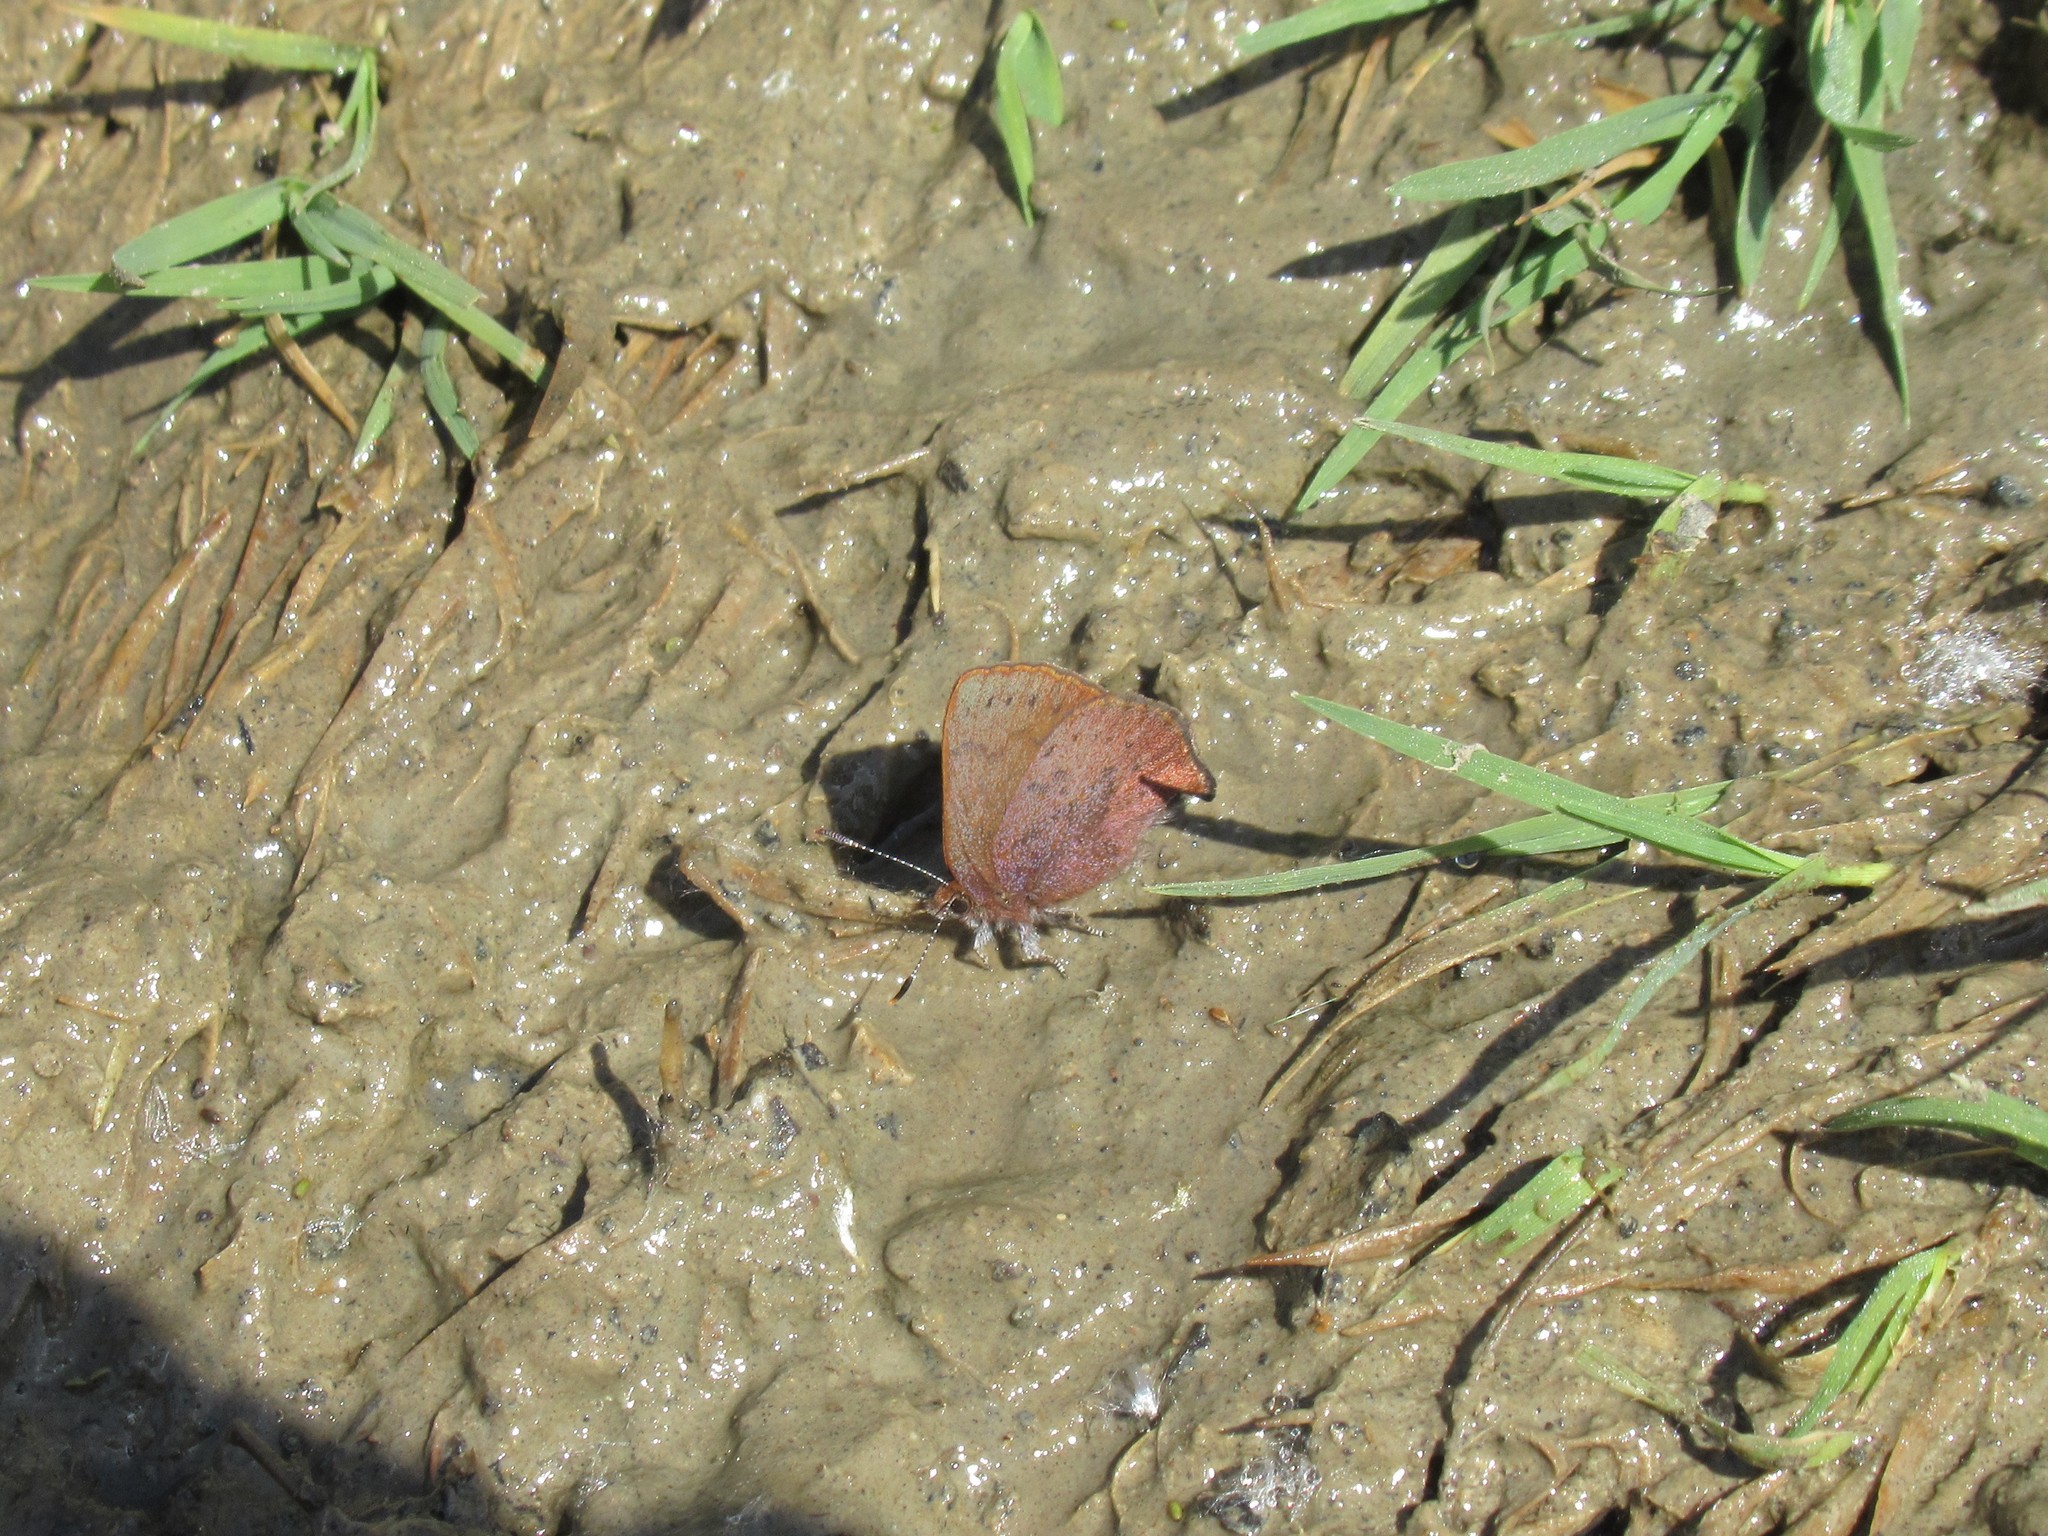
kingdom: Animalia
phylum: Arthropoda
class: Insecta
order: Lepidoptera
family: Lycaenidae
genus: Incisalia
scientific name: Incisalia irioides
